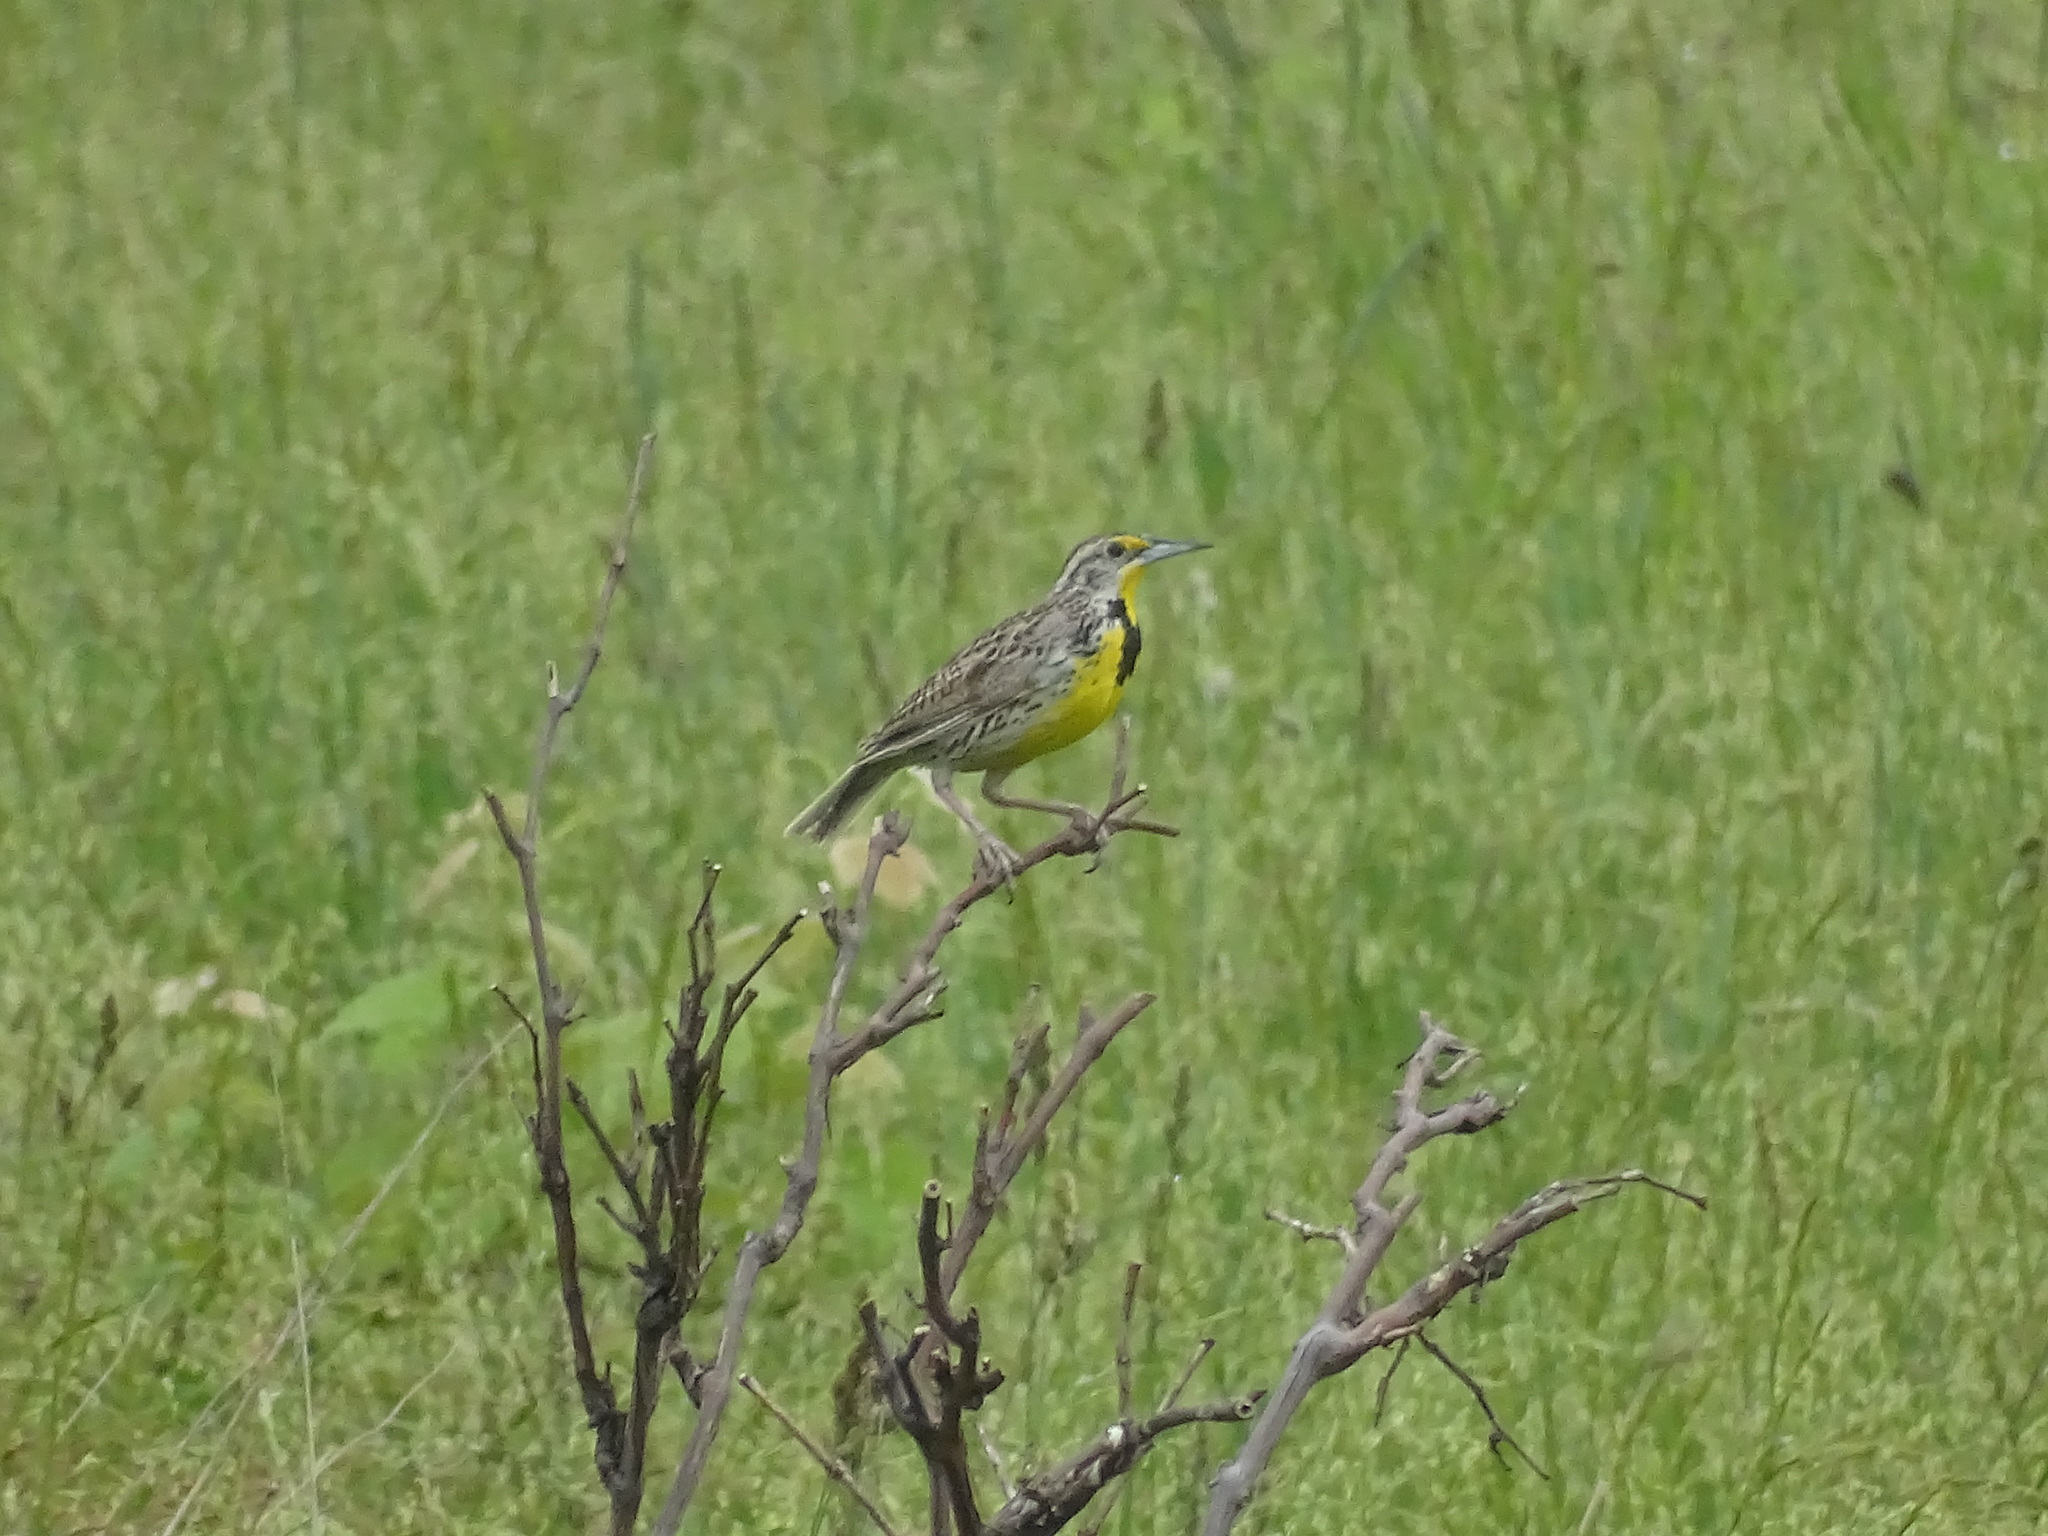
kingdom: Animalia
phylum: Chordata
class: Aves
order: Passeriformes
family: Icteridae
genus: Sturnella
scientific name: Sturnella neglecta
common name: Western meadowlark
